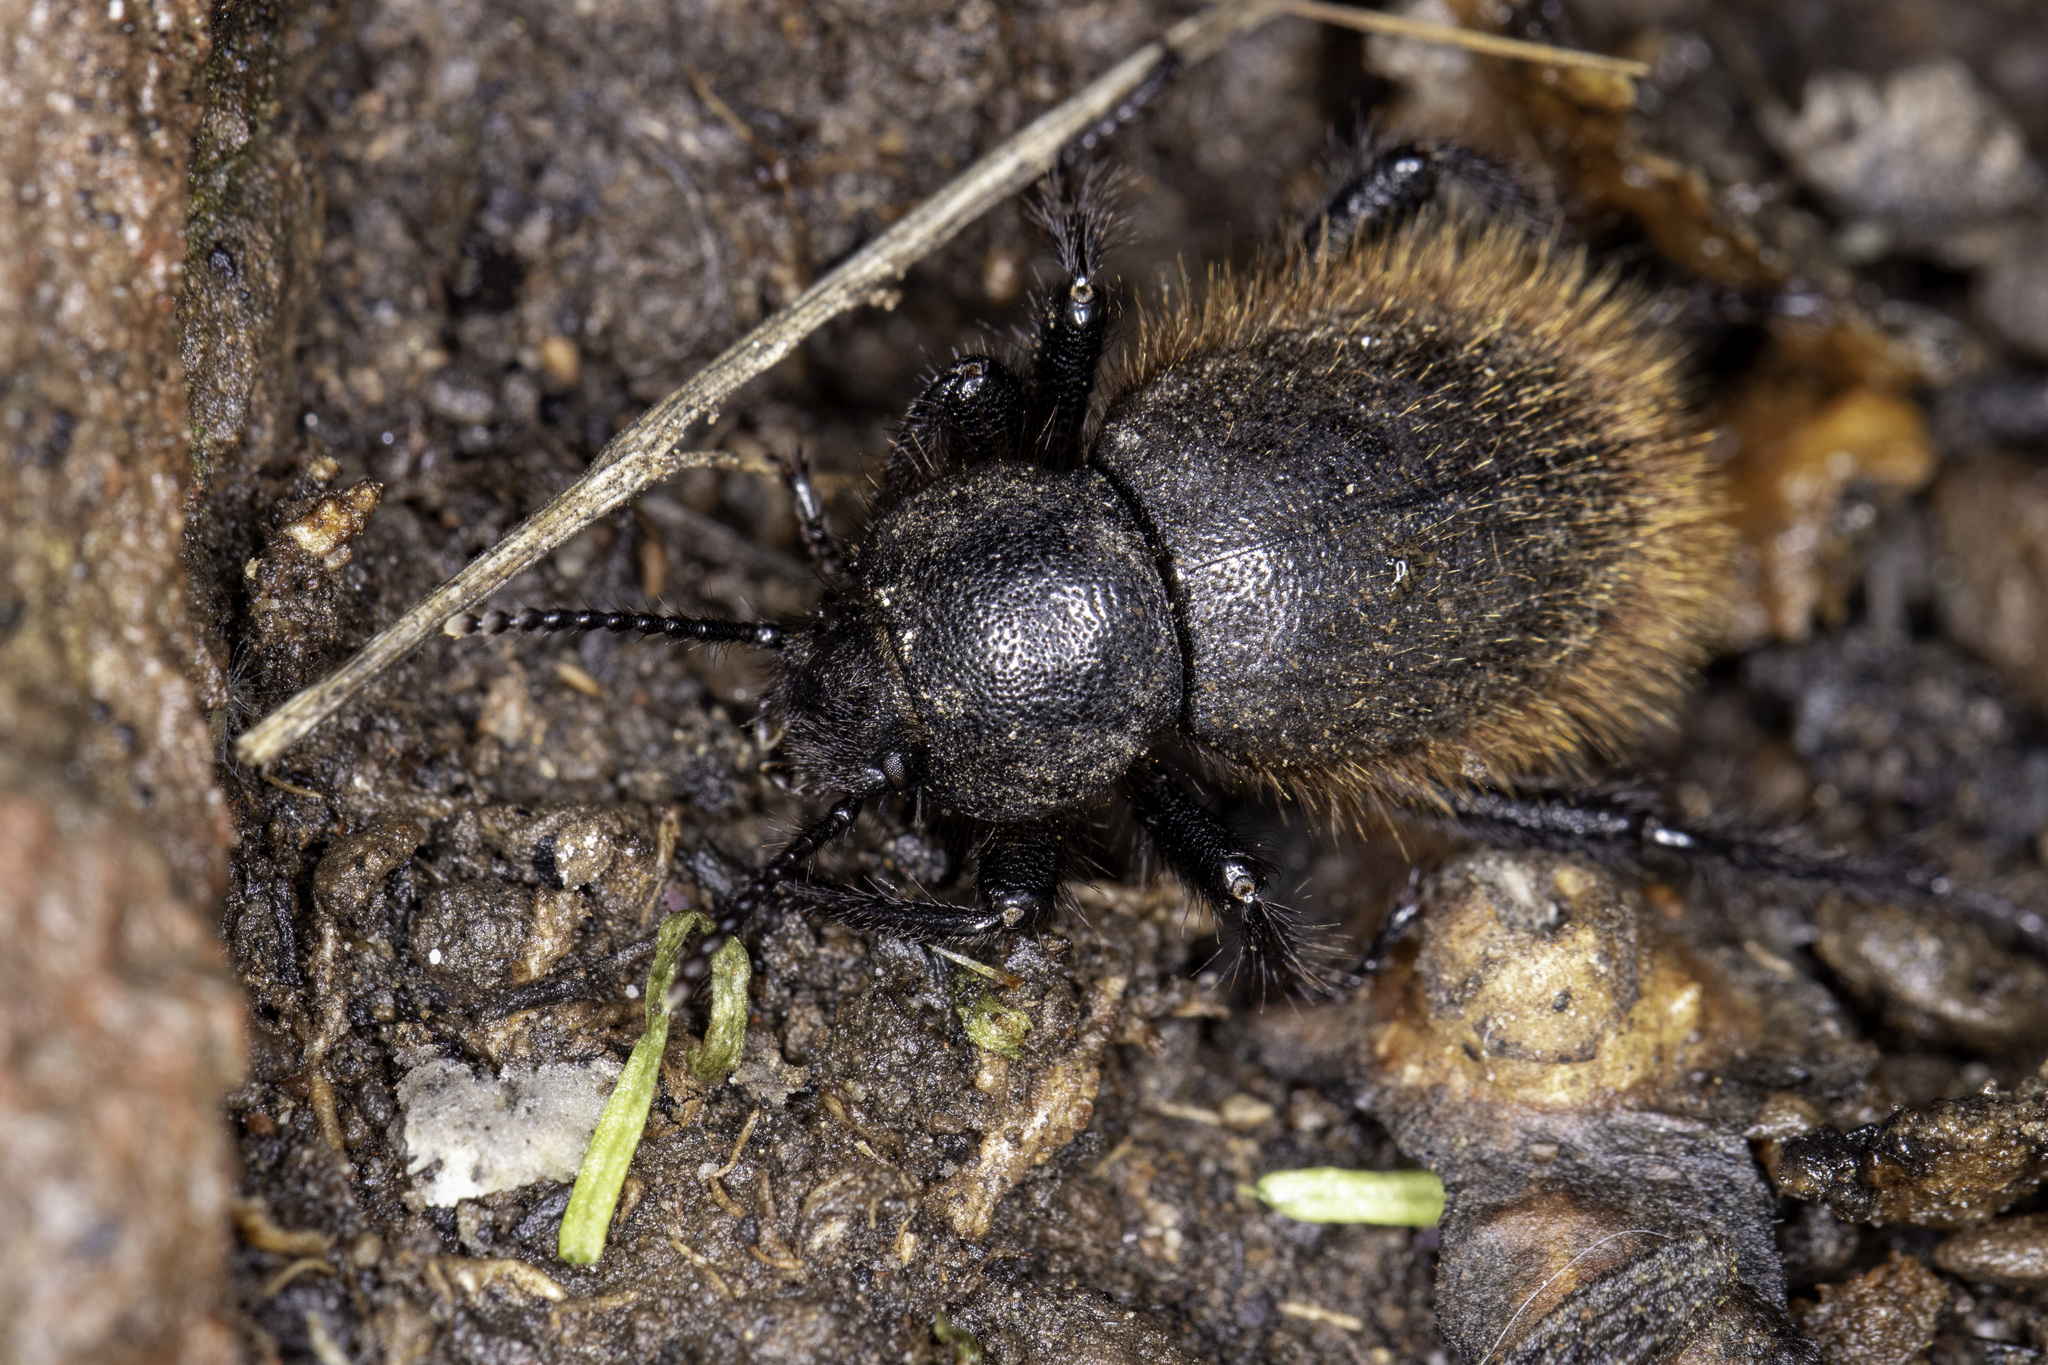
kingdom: Animalia
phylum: Arthropoda
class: Insecta
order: Coleoptera
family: Tenebrionidae
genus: Eleodes
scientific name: Eleodes osculans
